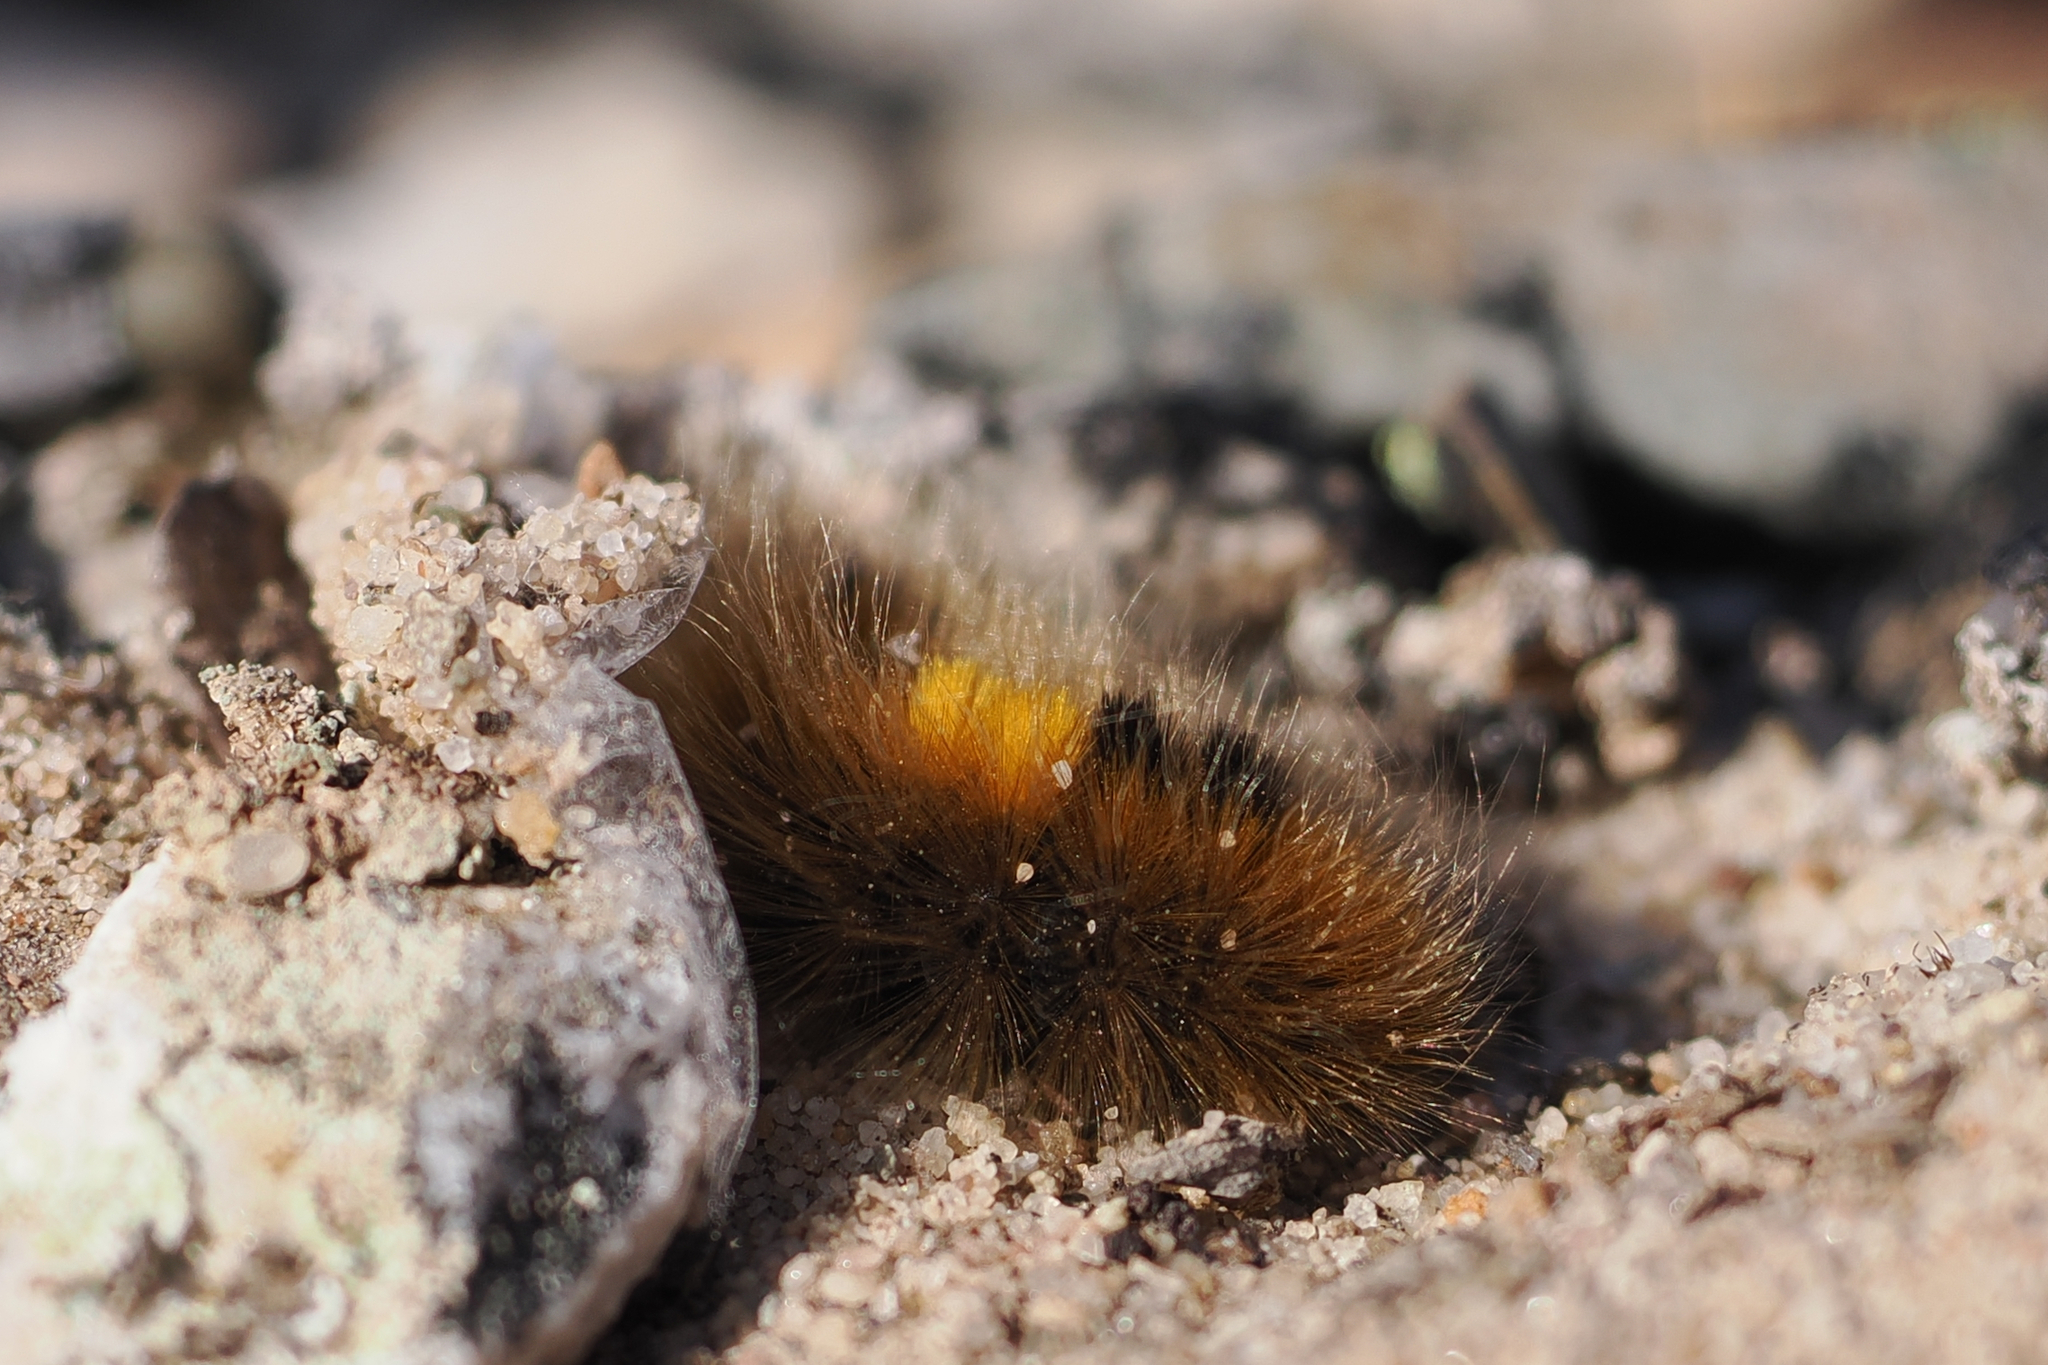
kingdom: Animalia
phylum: Arthropoda
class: Insecta
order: Lepidoptera
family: Erebidae
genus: Gynaephora
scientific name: Gynaephora groenlandica
